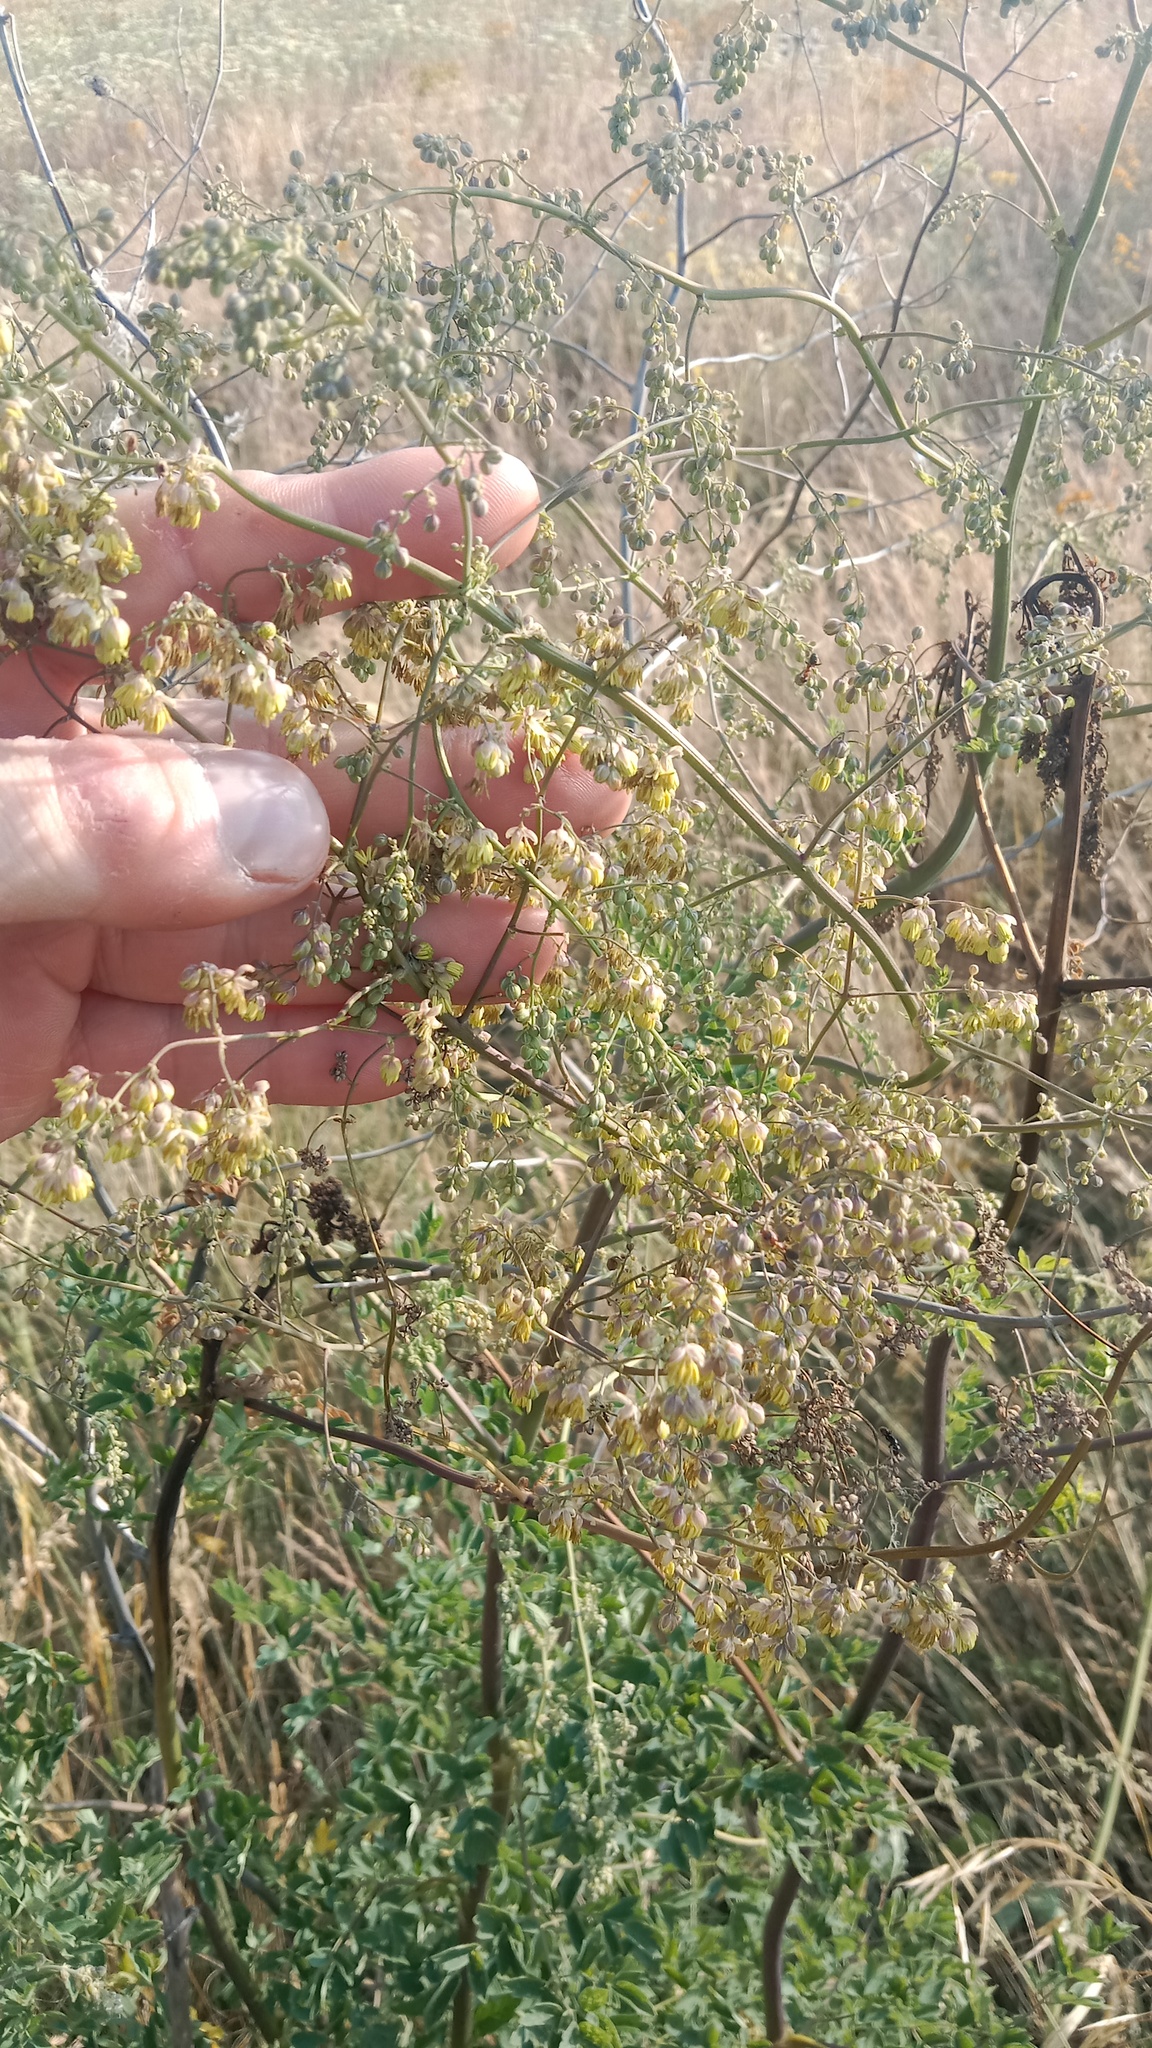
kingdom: Plantae
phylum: Tracheophyta
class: Magnoliopsida
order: Ranunculales
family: Ranunculaceae
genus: Thalictrum
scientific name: Thalictrum minus
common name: Lesser meadow-rue
